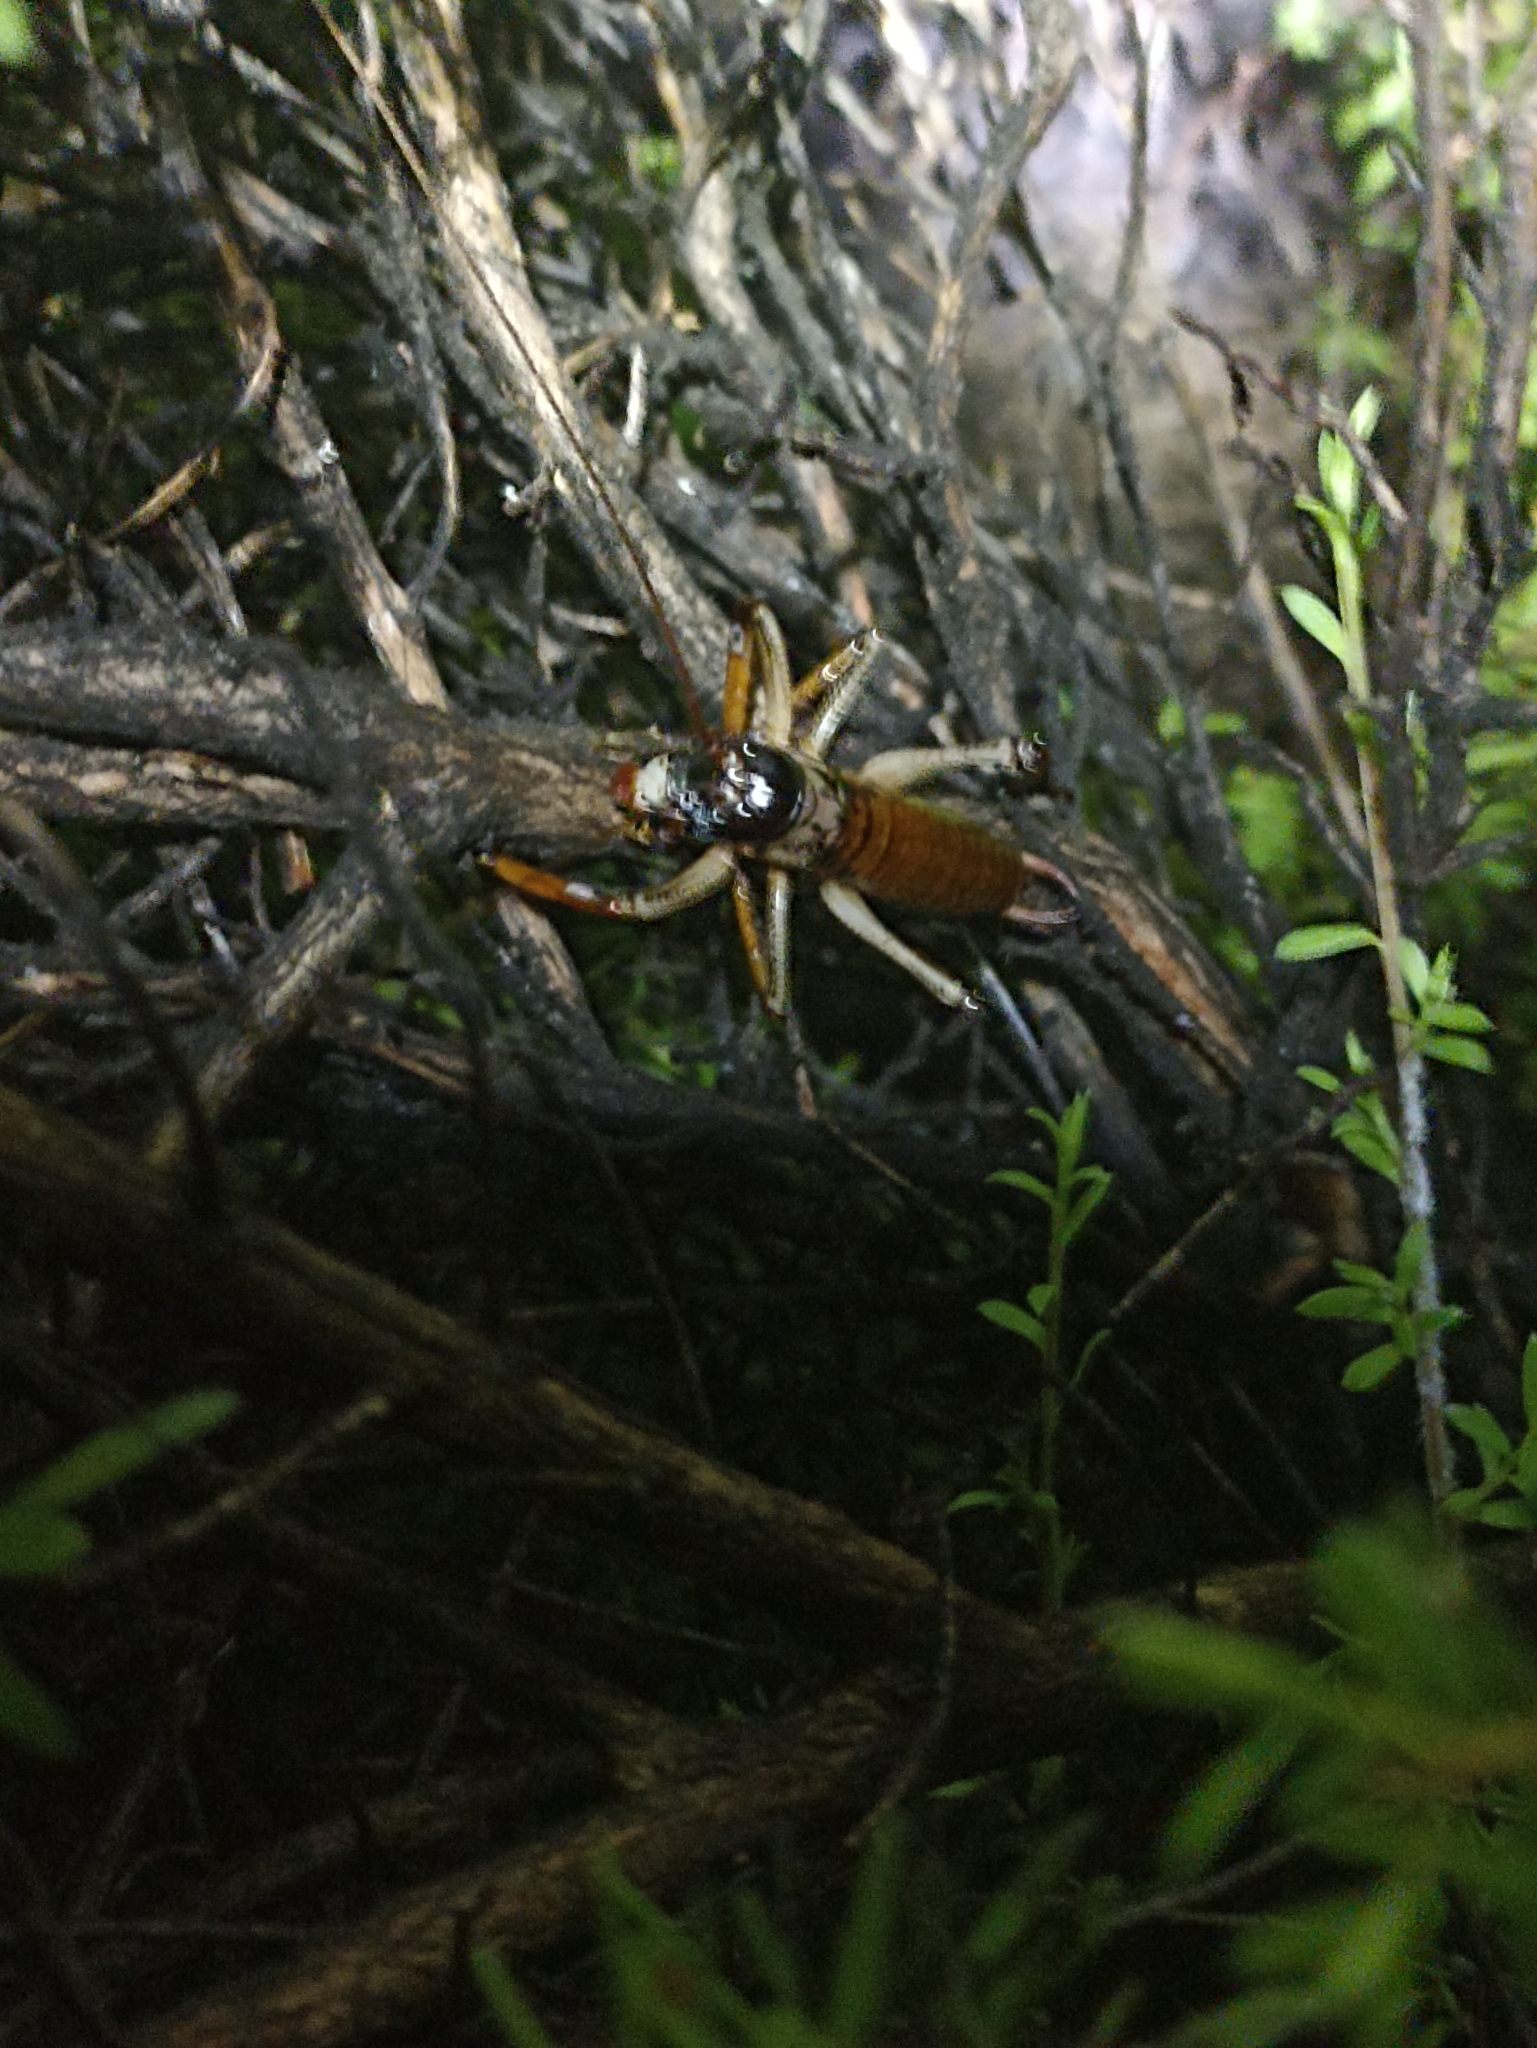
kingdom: Animalia
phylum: Arthropoda
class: Insecta
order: Orthoptera
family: Anostostomatidae
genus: Hemideina
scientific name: Hemideina thoracica
